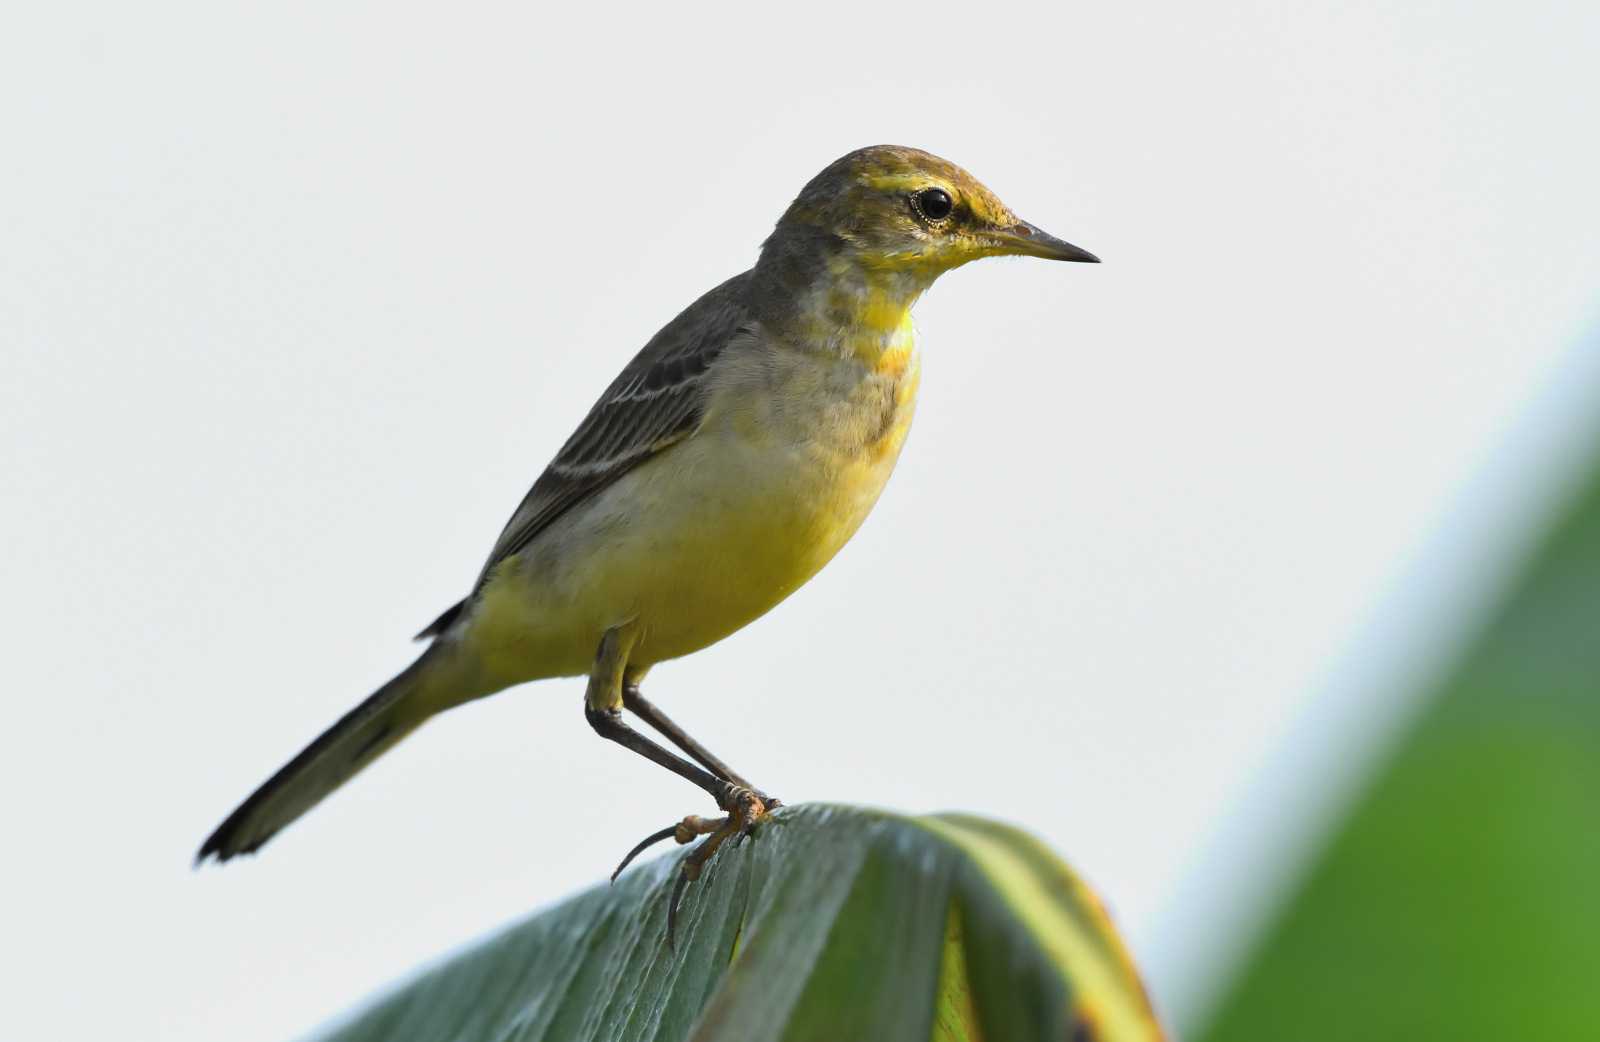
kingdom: Animalia
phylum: Chordata
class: Aves
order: Passeriformes
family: Motacillidae
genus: Motacilla
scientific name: Motacilla flava
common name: Western yellow wagtail
